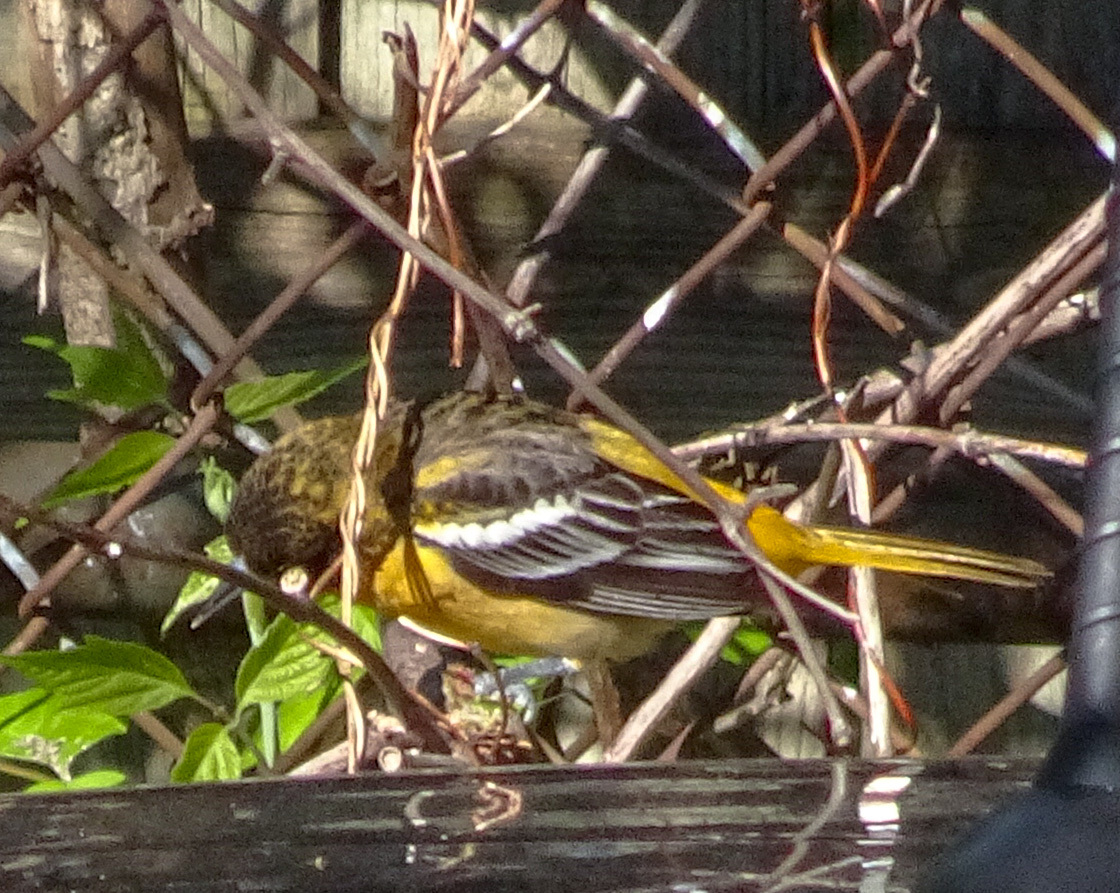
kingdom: Animalia
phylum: Chordata
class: Aves
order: Passeriformes
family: Icteridae
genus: Icterus
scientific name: Icterus galbula
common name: Baltimore oriole
